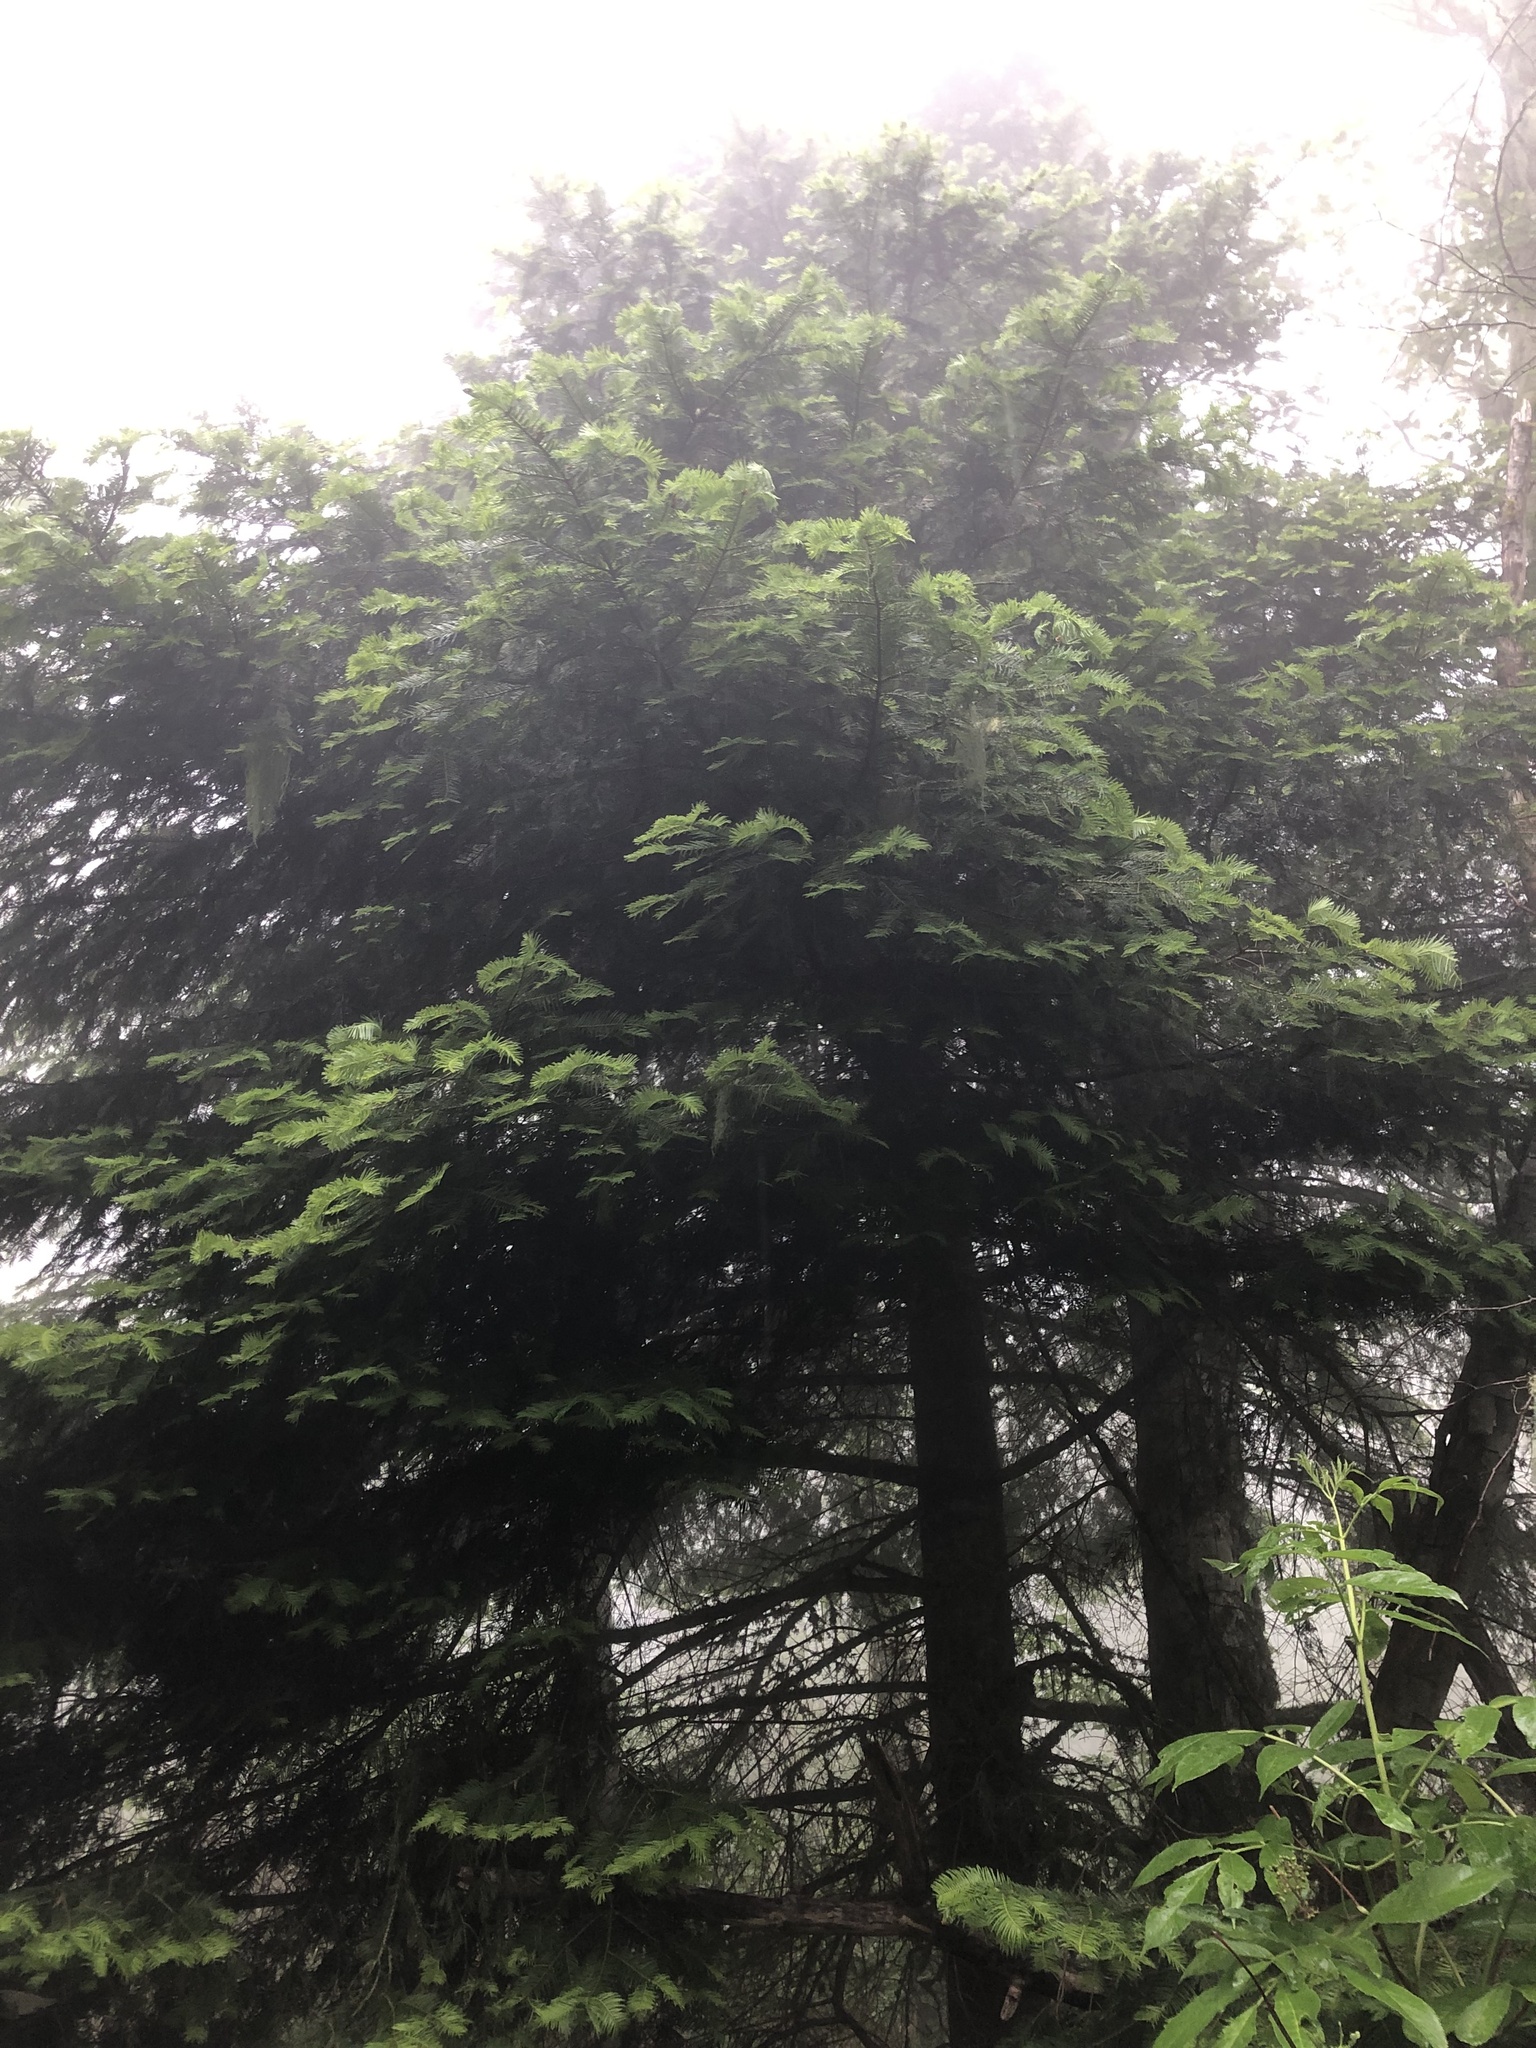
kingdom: Plantae
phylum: Tracheophyta
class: Pinopsida
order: Pinales
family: Pinaceae
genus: Abies
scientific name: Abies grandis
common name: Giant fir
